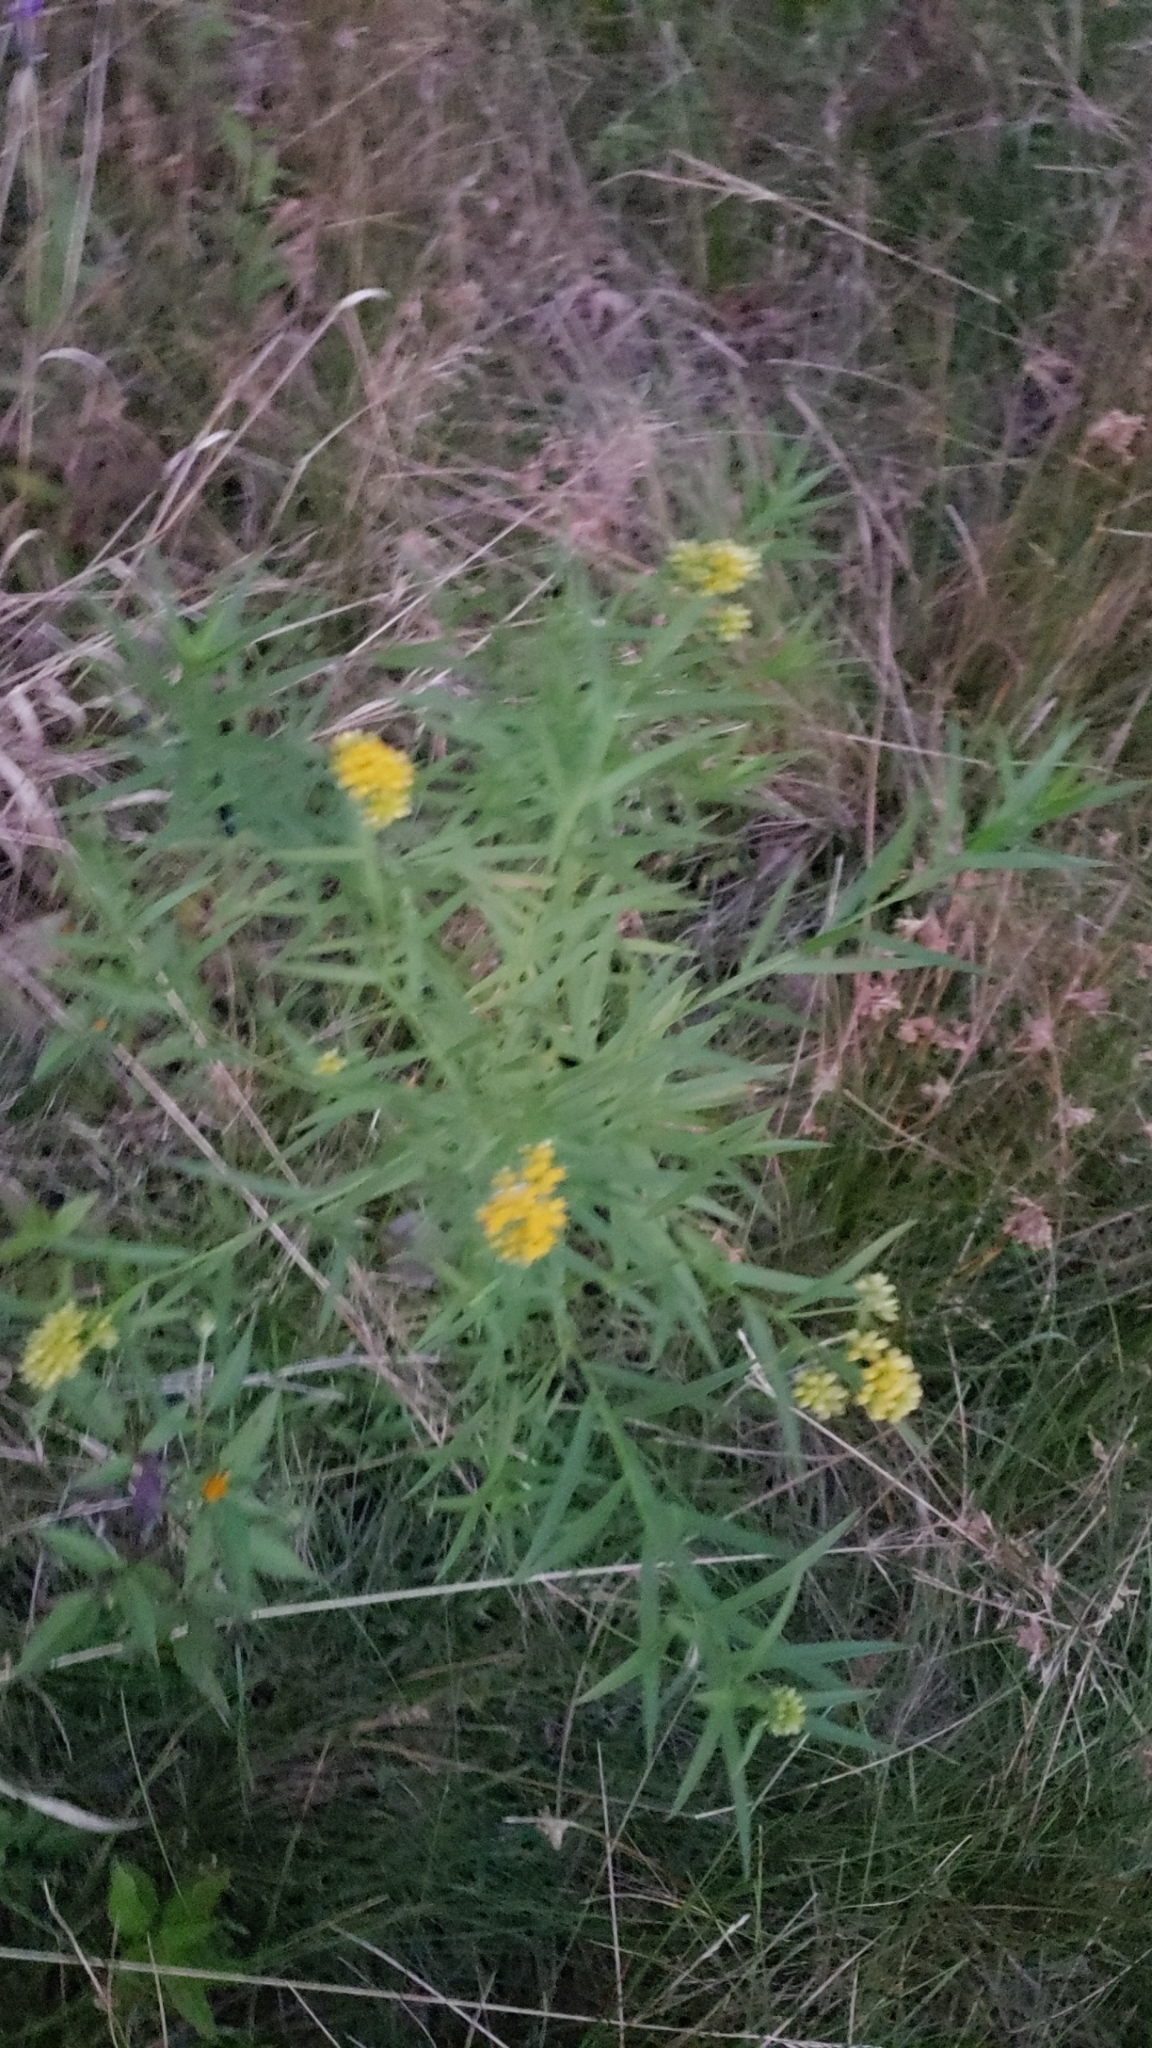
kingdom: Plantae
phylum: Tracheophyta
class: Magnoliopsida
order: Asterales
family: Asteraceae
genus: Euthamia
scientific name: Euthamia graminifolia
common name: Common goldentop
